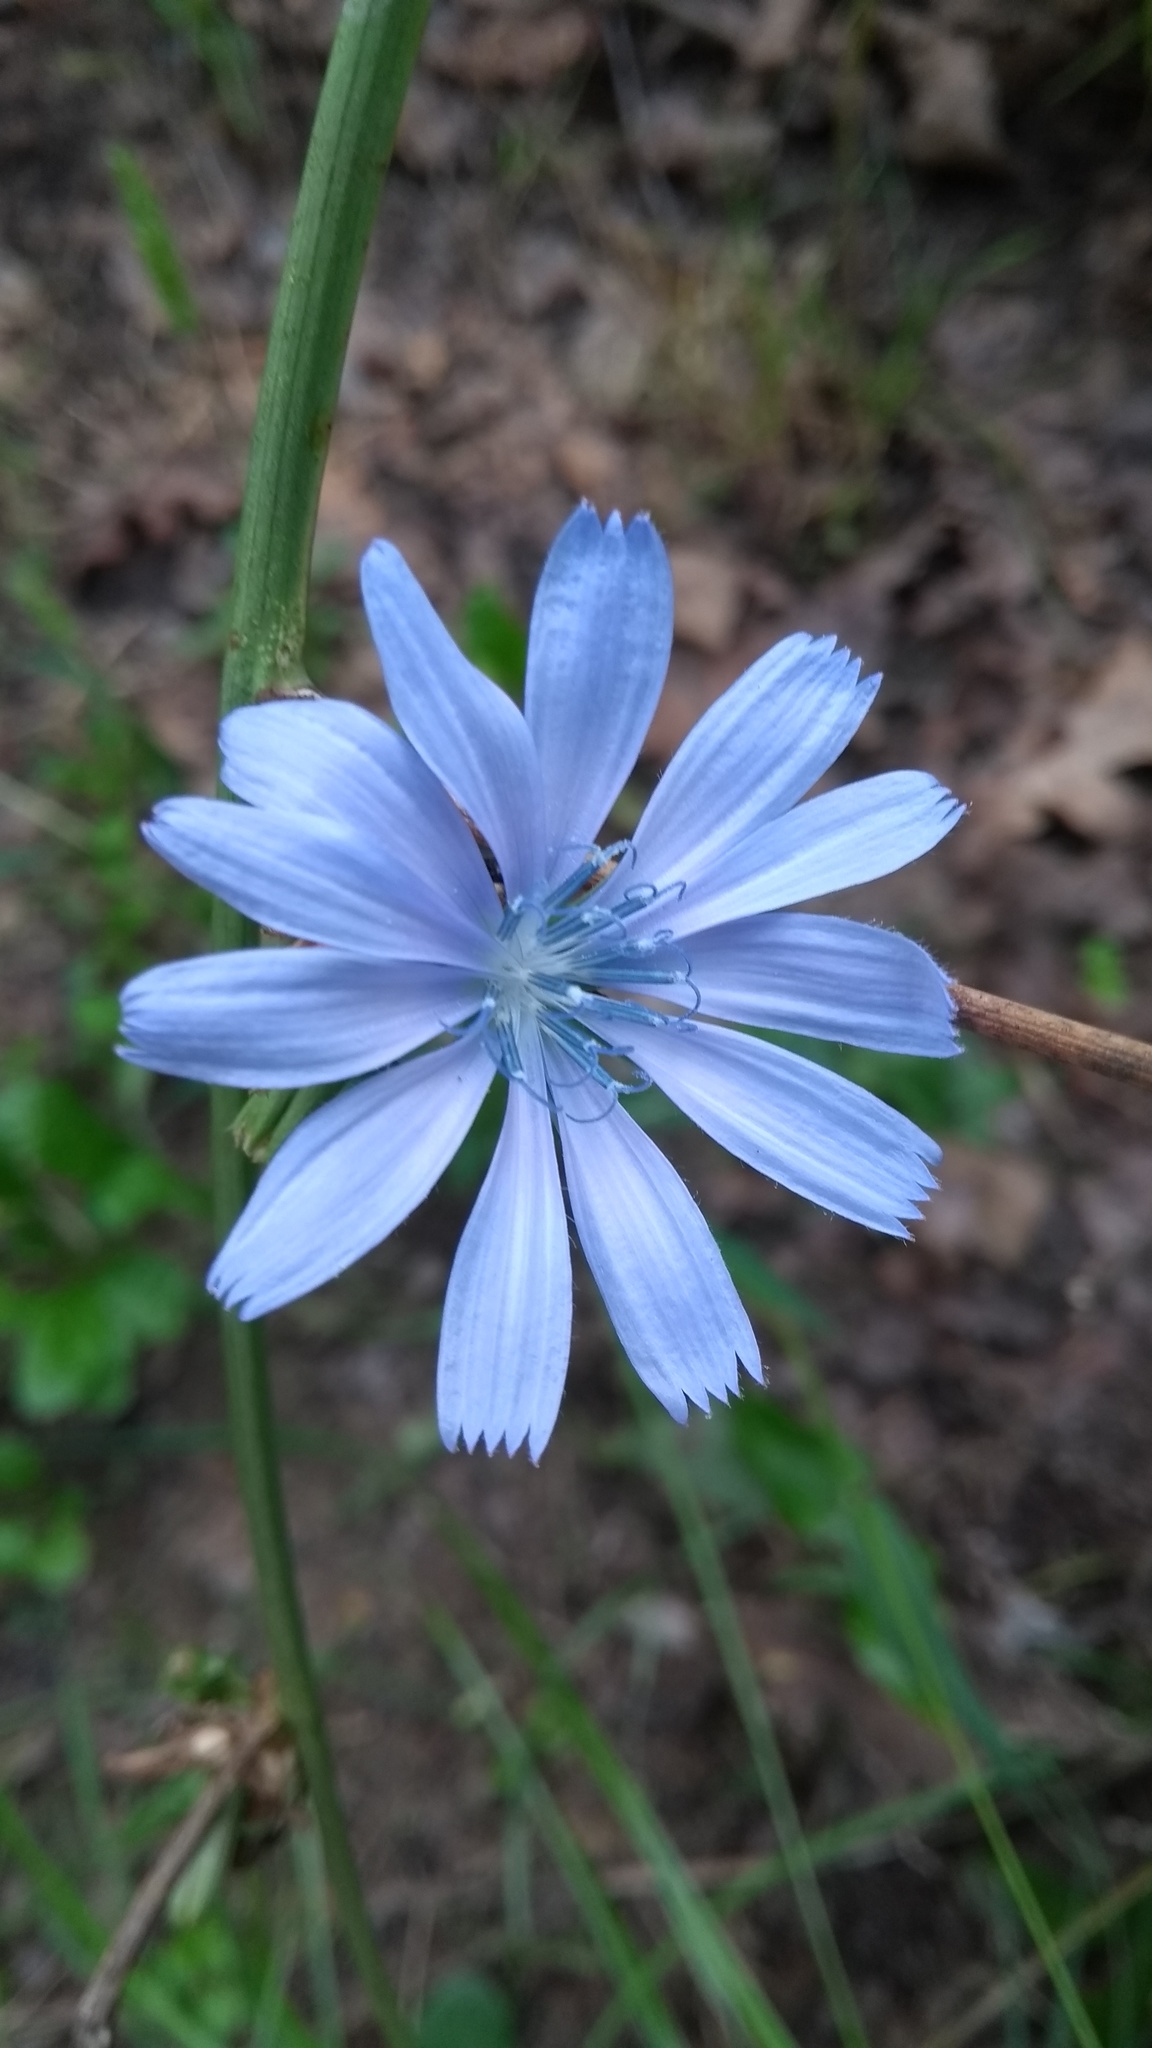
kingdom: Plantae
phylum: Tracheophyta
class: Magnoliopsida
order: Asterales
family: Asteraceae
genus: Cichorium
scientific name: Cichorium intybus
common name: Chicory
